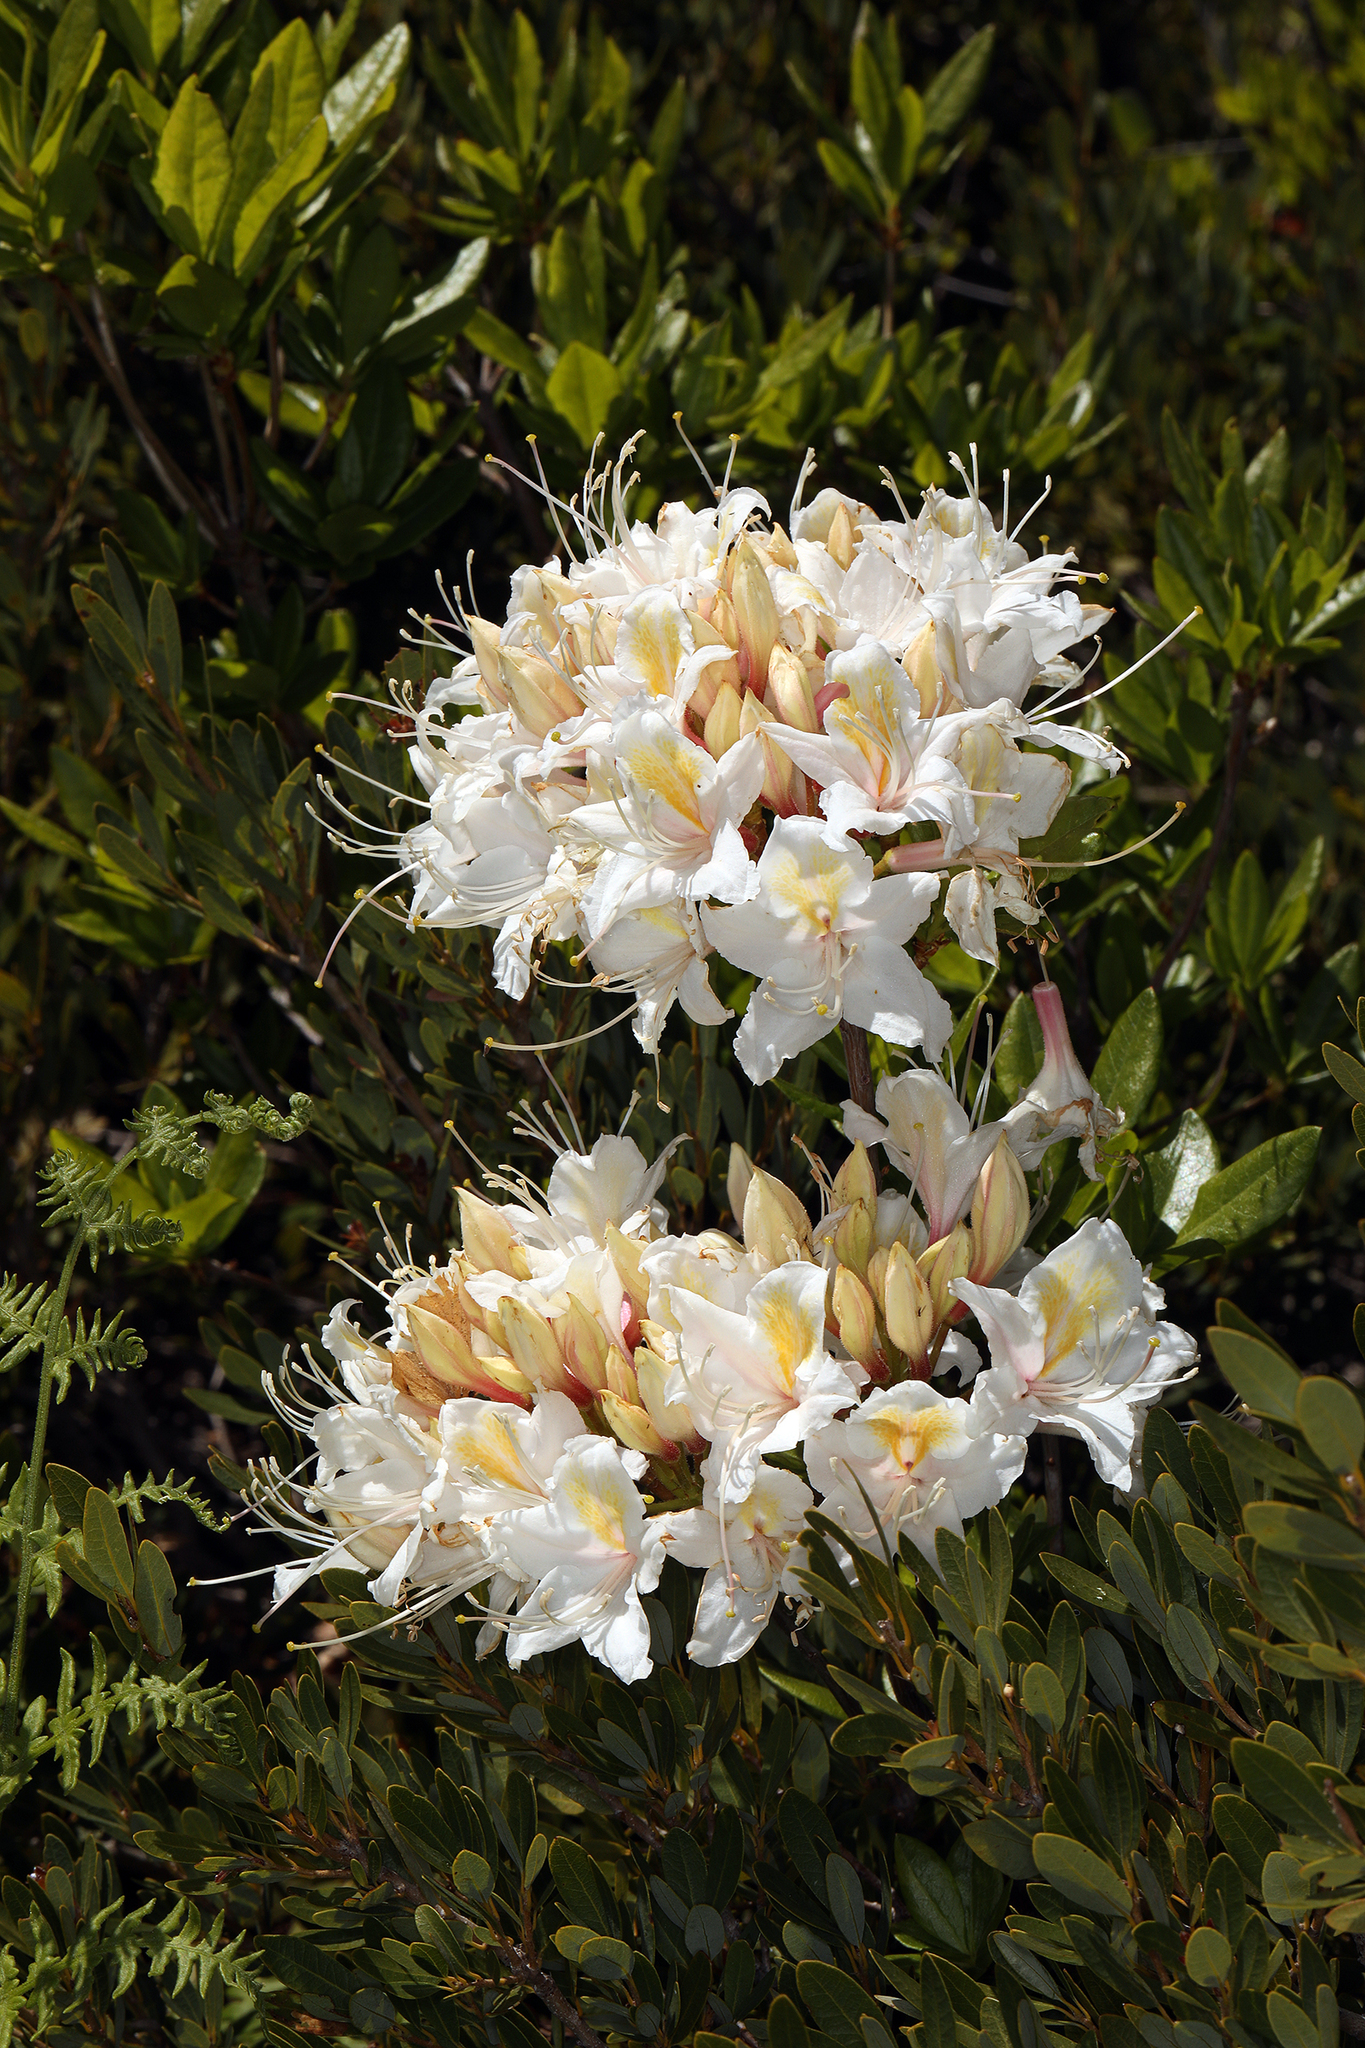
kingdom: Plantae
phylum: Tracheophyta
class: Magnoliopsida
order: Ericales
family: Ericaceae
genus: Rhododendron
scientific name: Rhododendron occidentale
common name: Western azalea
